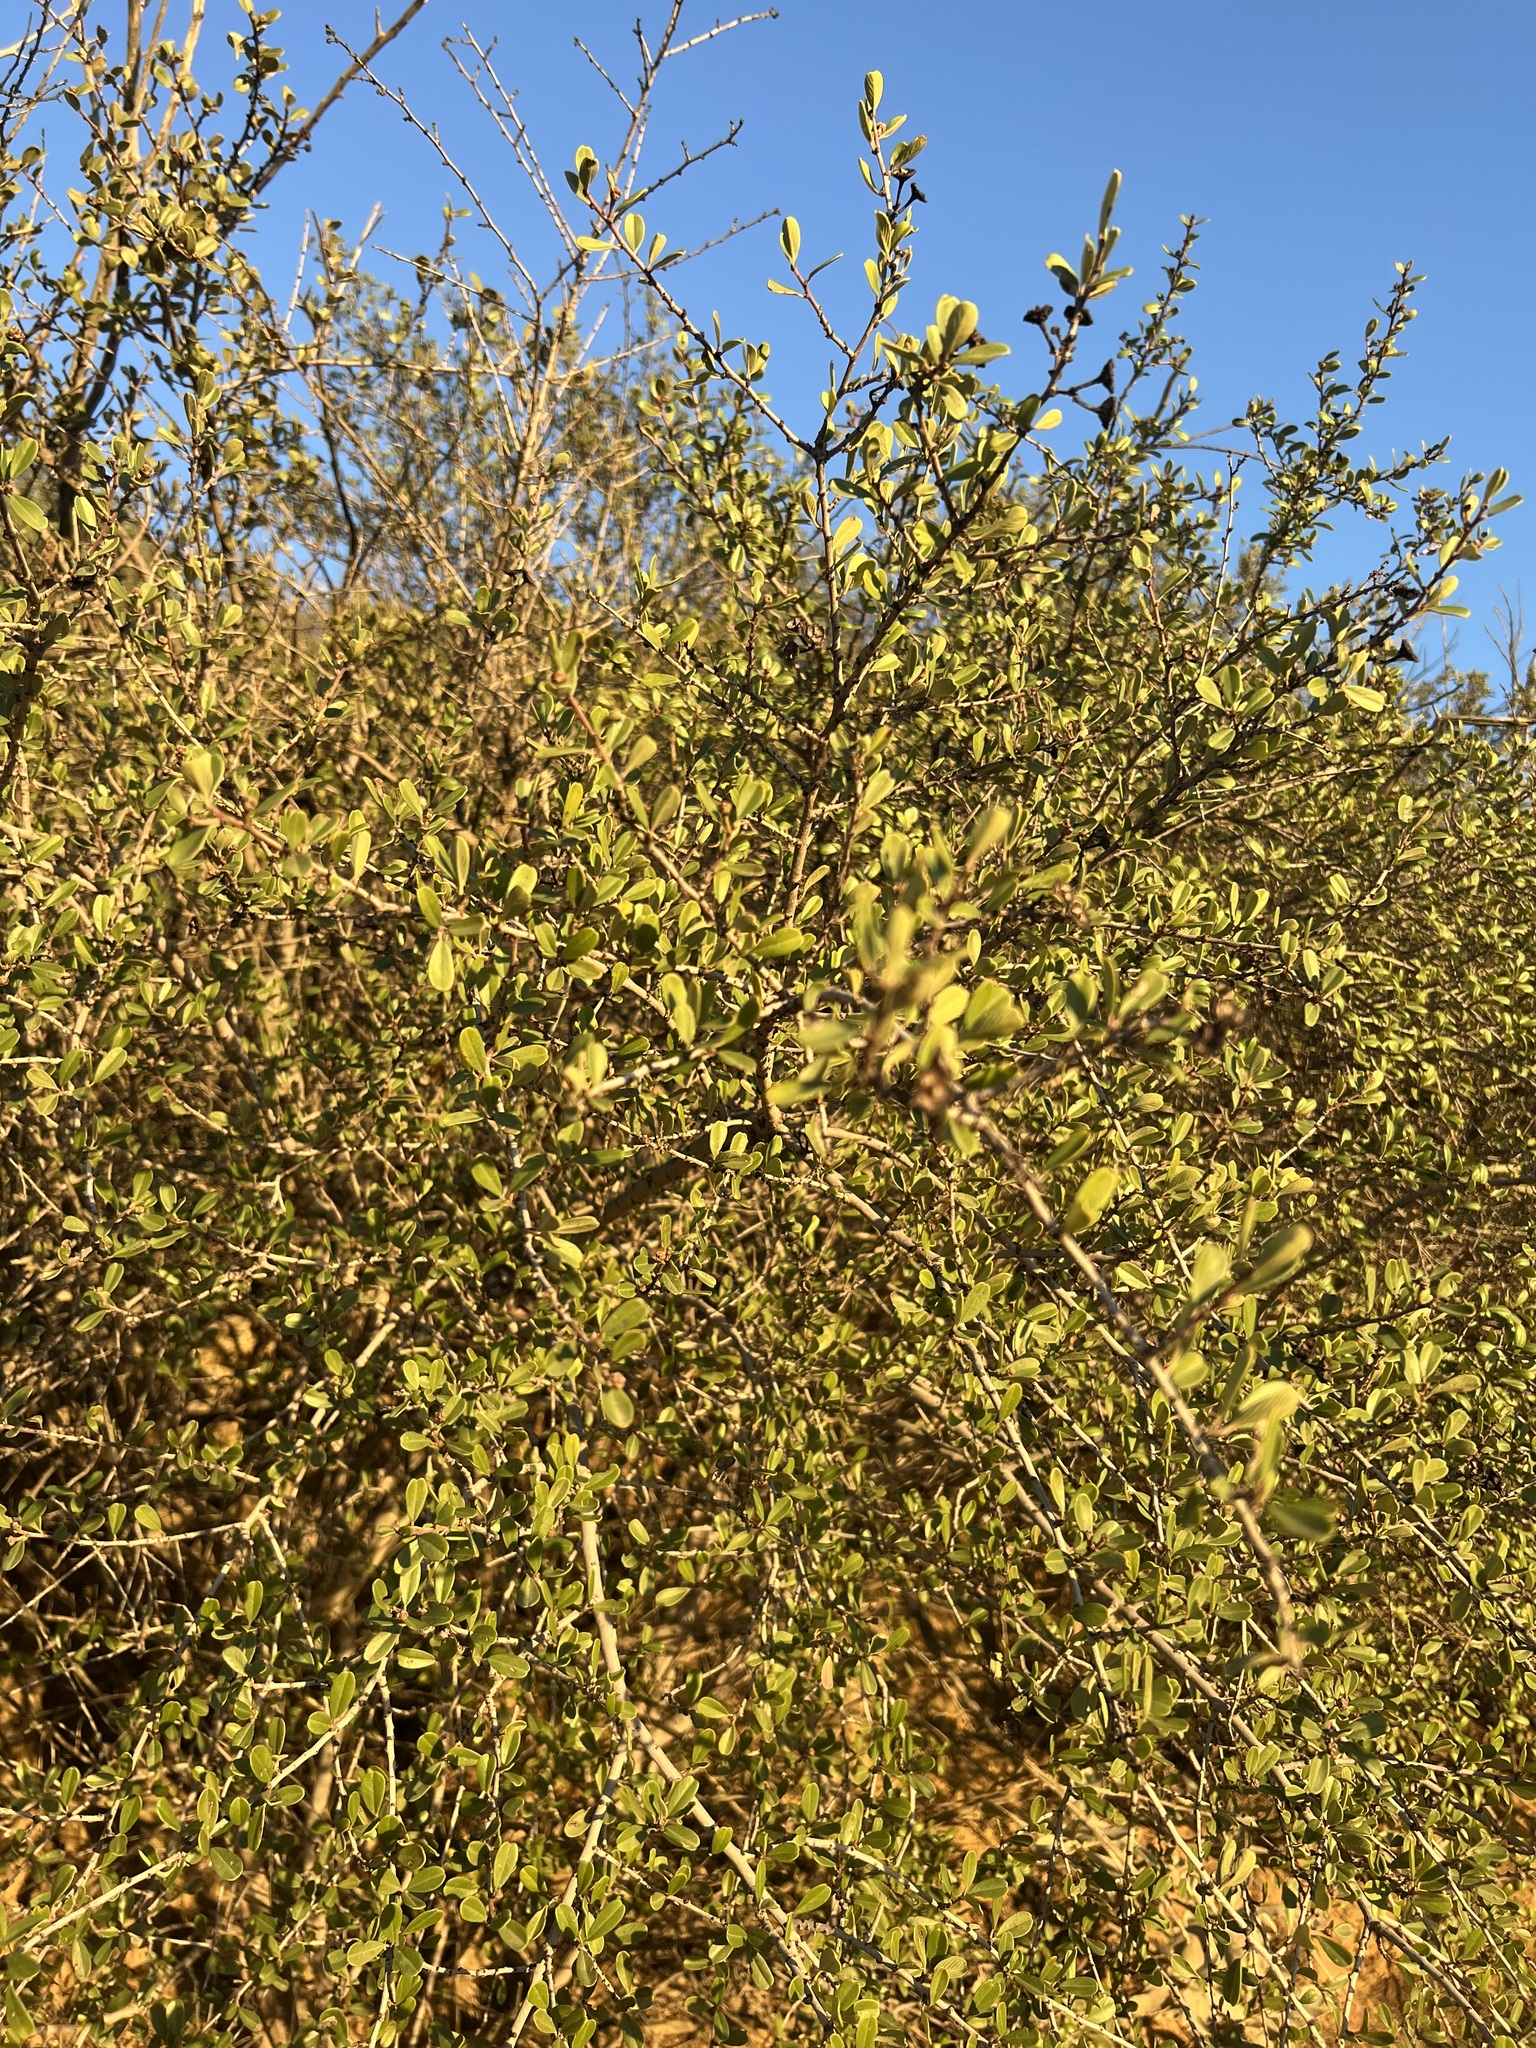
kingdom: Plantae
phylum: Tracheophyta
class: Magnoliopsida
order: Rosales
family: Rhamnaceae
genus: Ceanothus
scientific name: Ceanothus megacarpus
